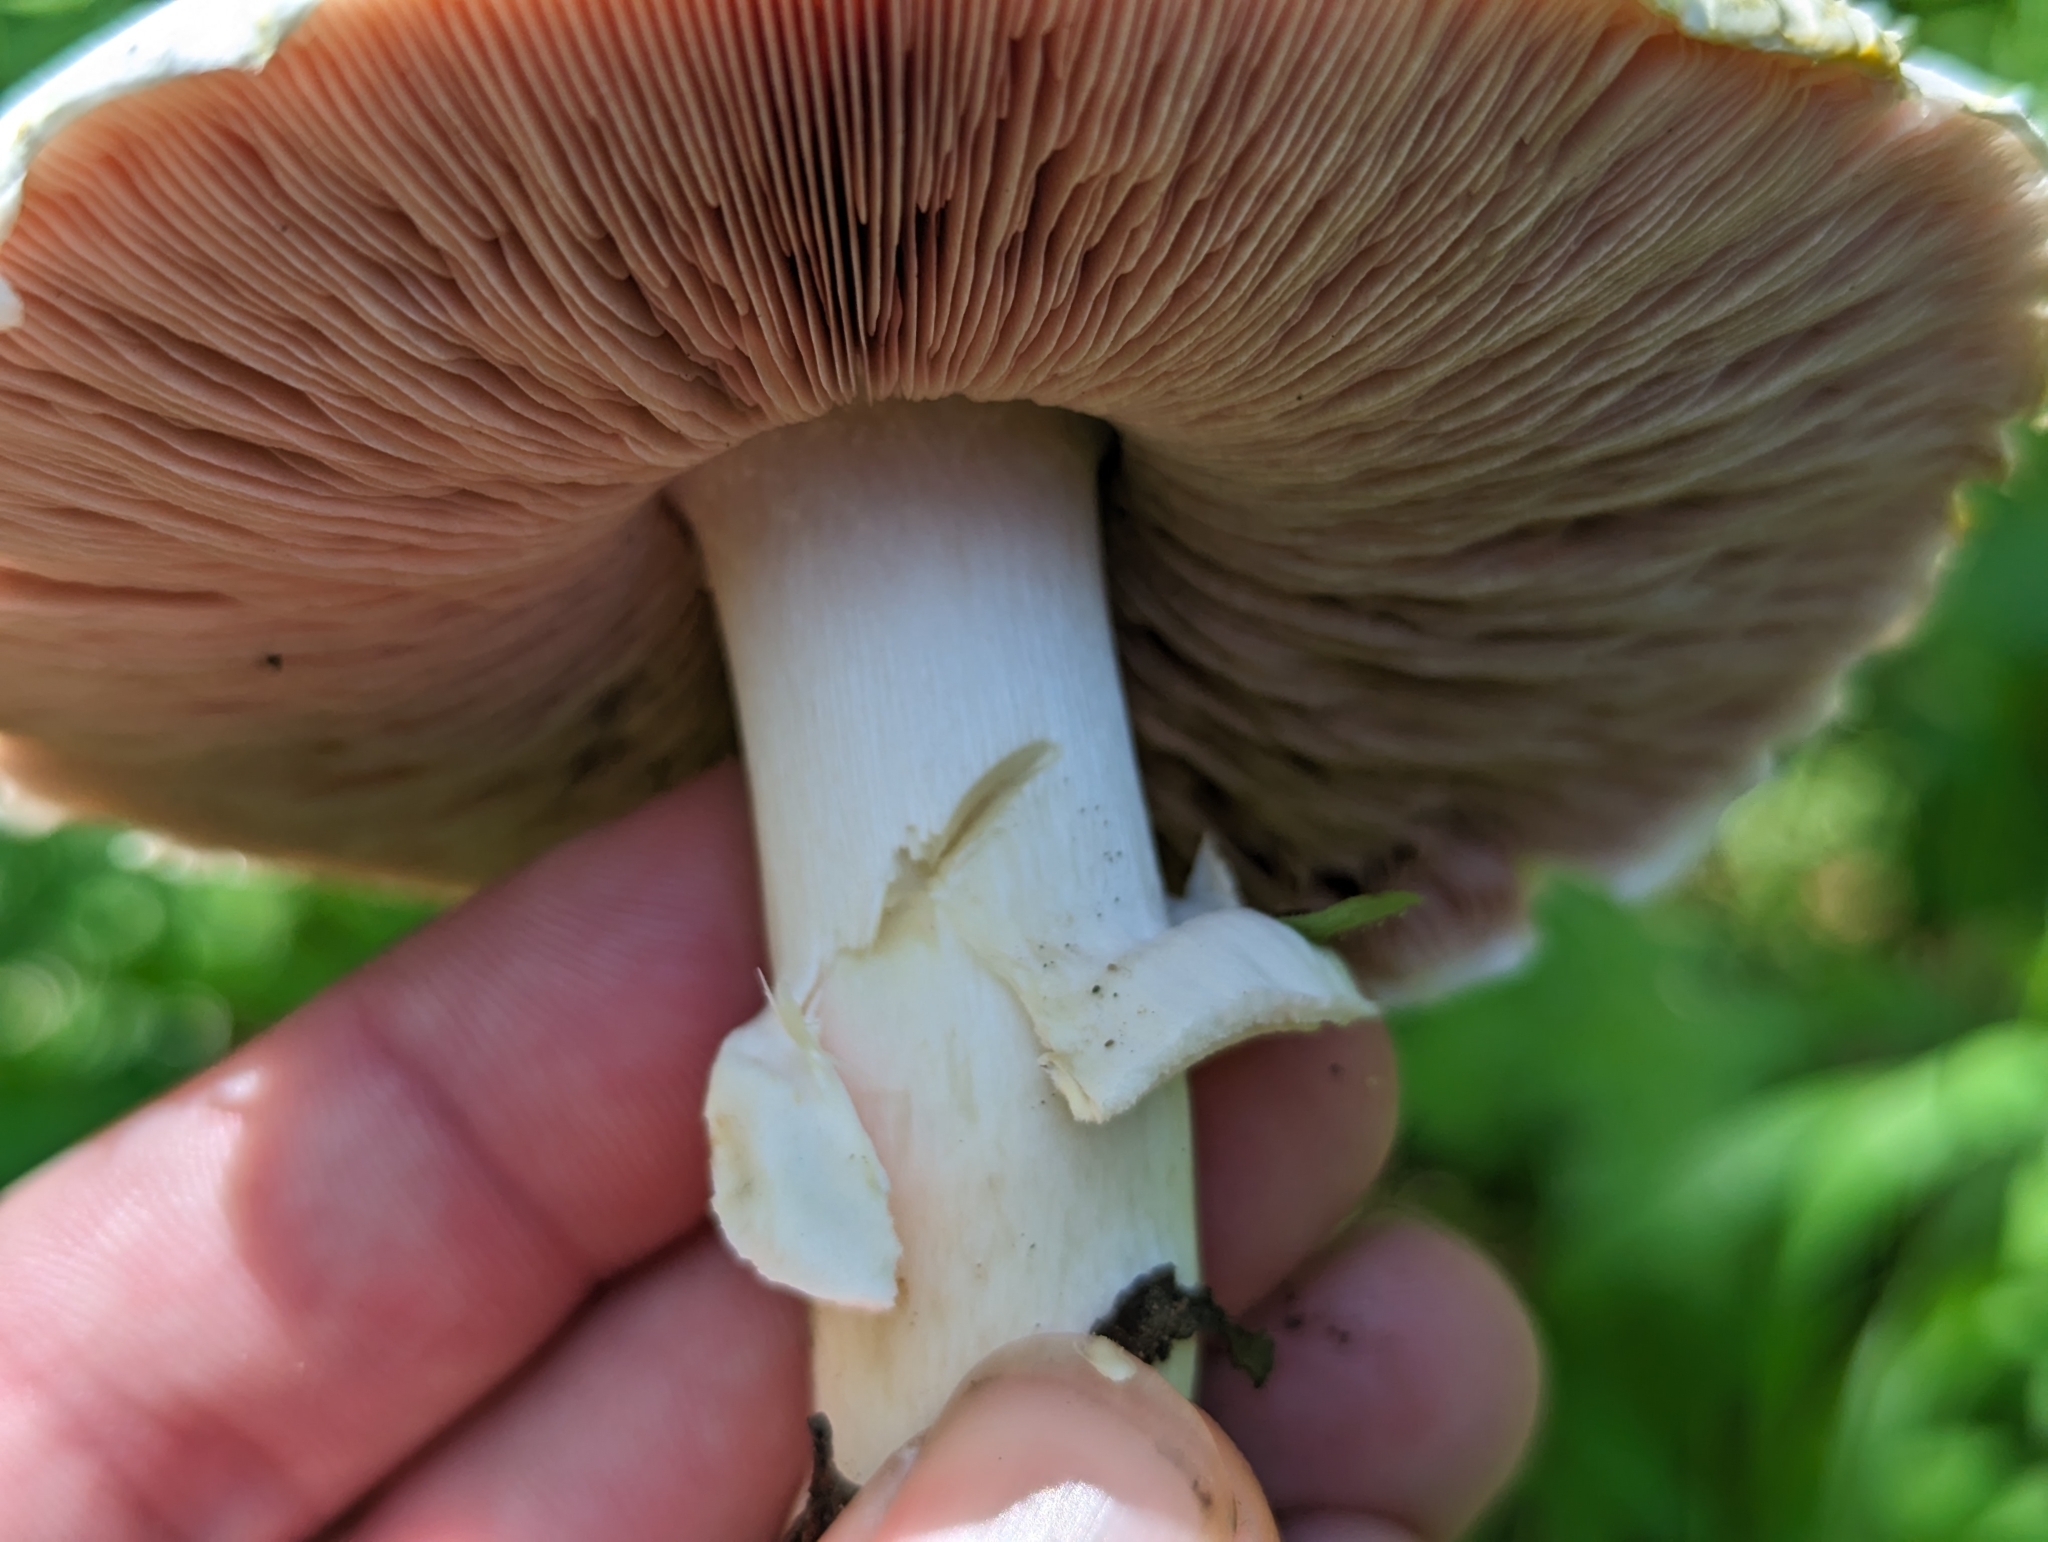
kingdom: Fungi
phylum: Basidiomycota
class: Agaricomycetes
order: Agaricales
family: Agaricaceae
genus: Agaricus
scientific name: Agaricus xanthodermus
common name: Yellow stainer
